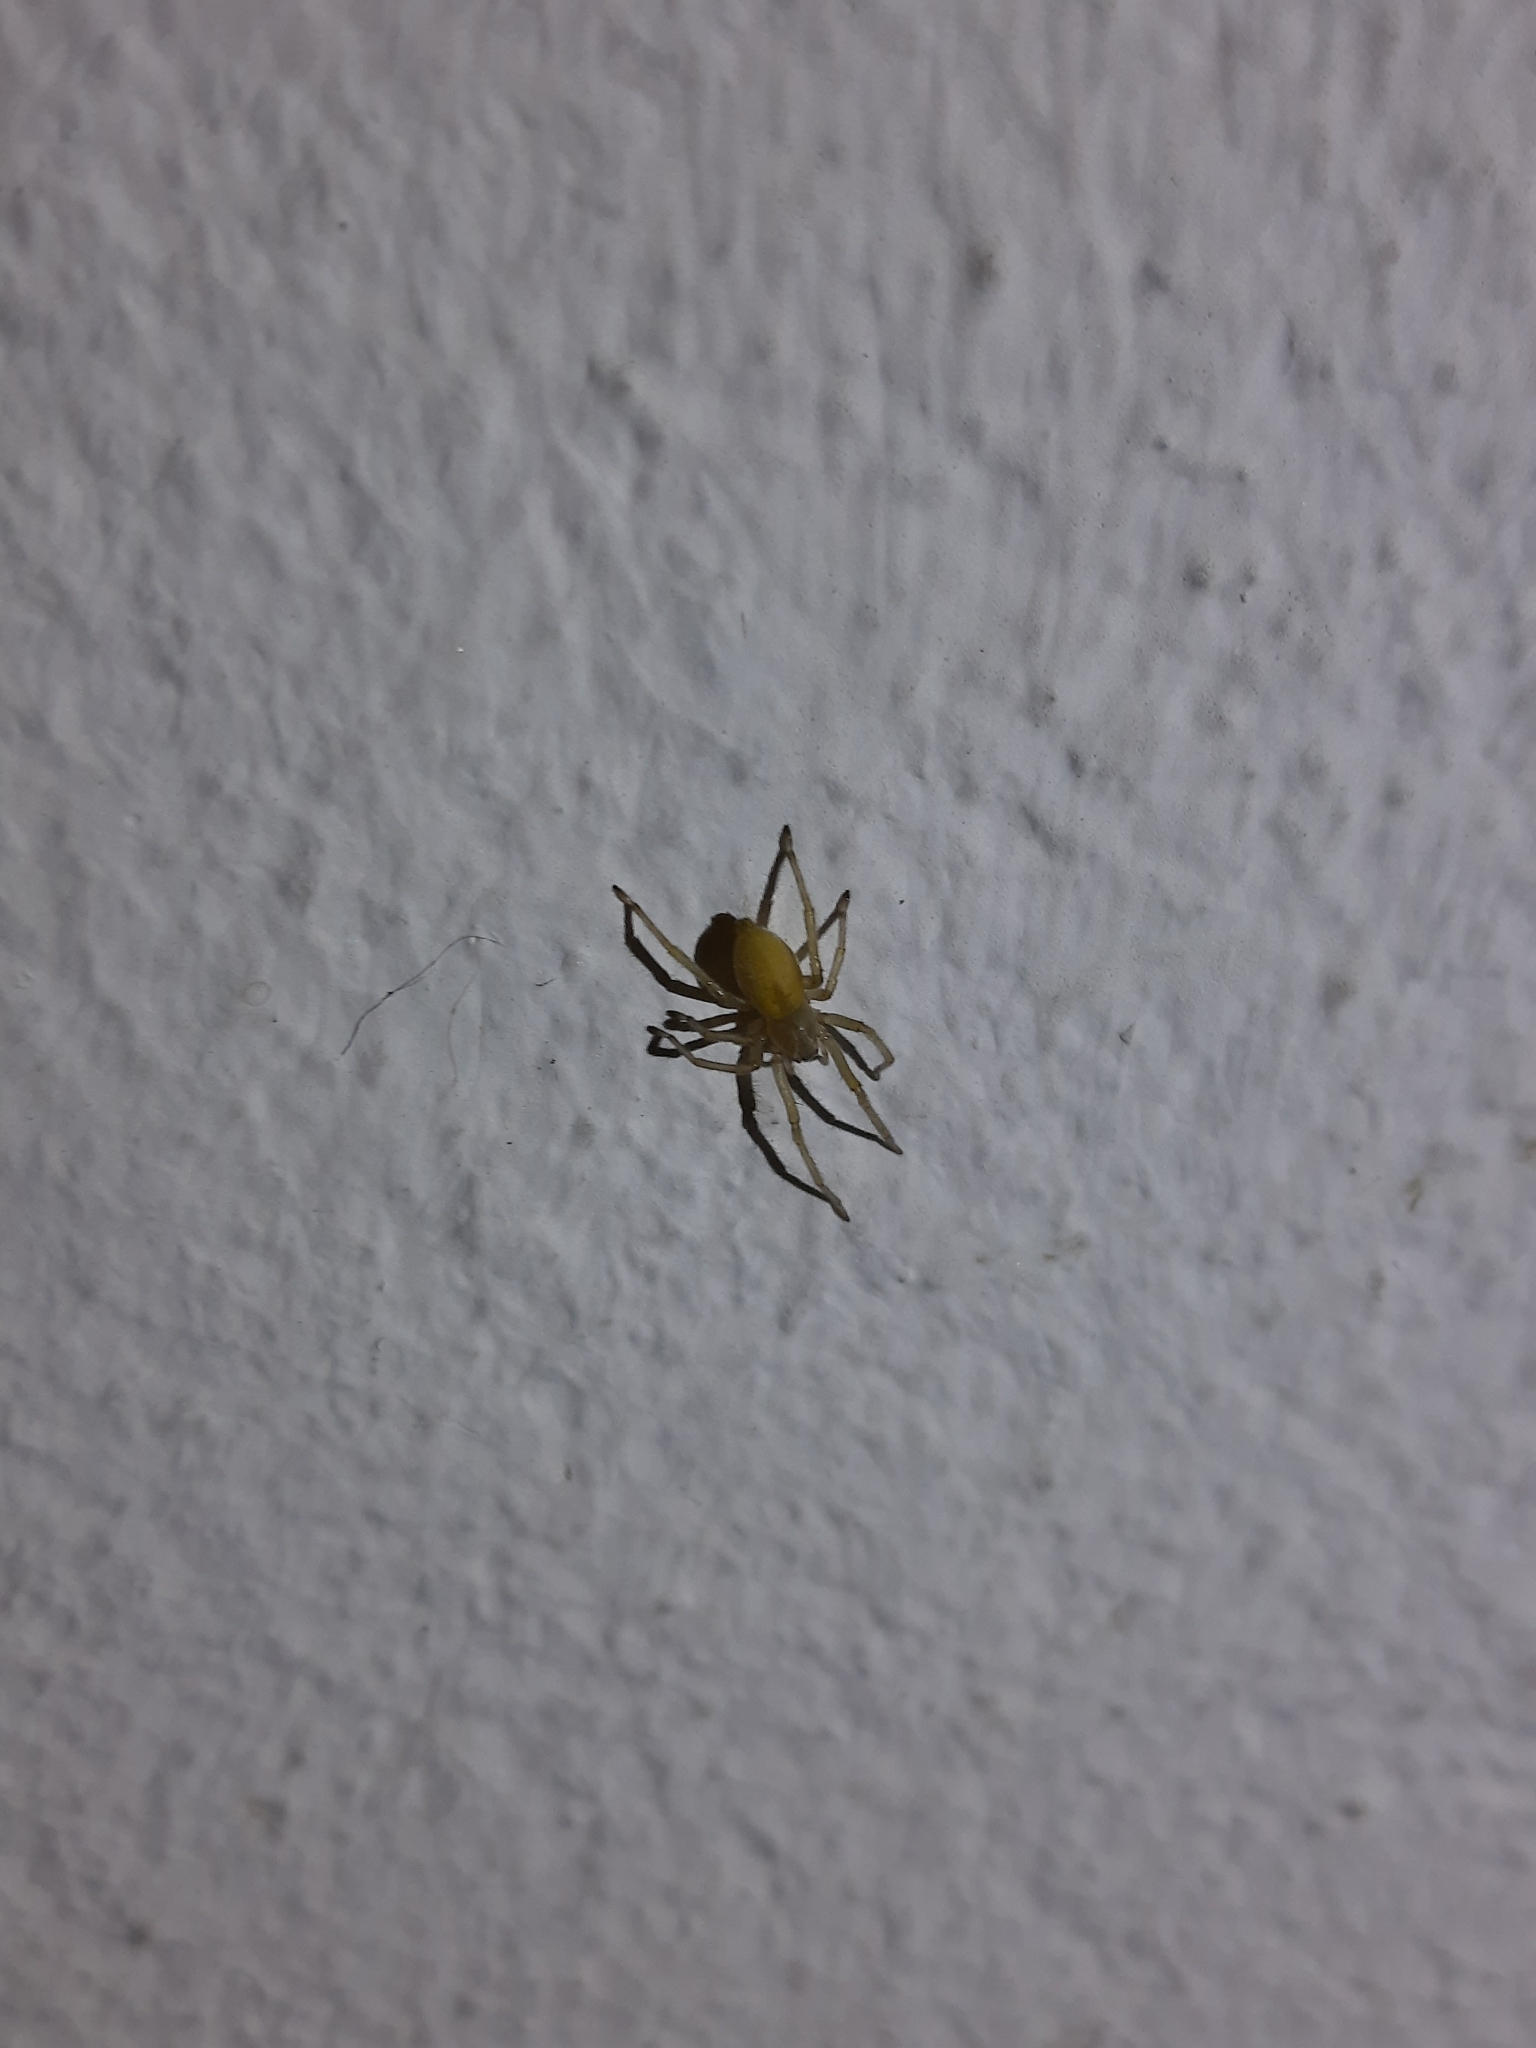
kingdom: Animalia
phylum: Arthropoda
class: Arachnida
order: Araneae
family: Cheiracanthiidae
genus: Cheiracanthium
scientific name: Cheiracanthium mildei
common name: Northern yellow sac spider
